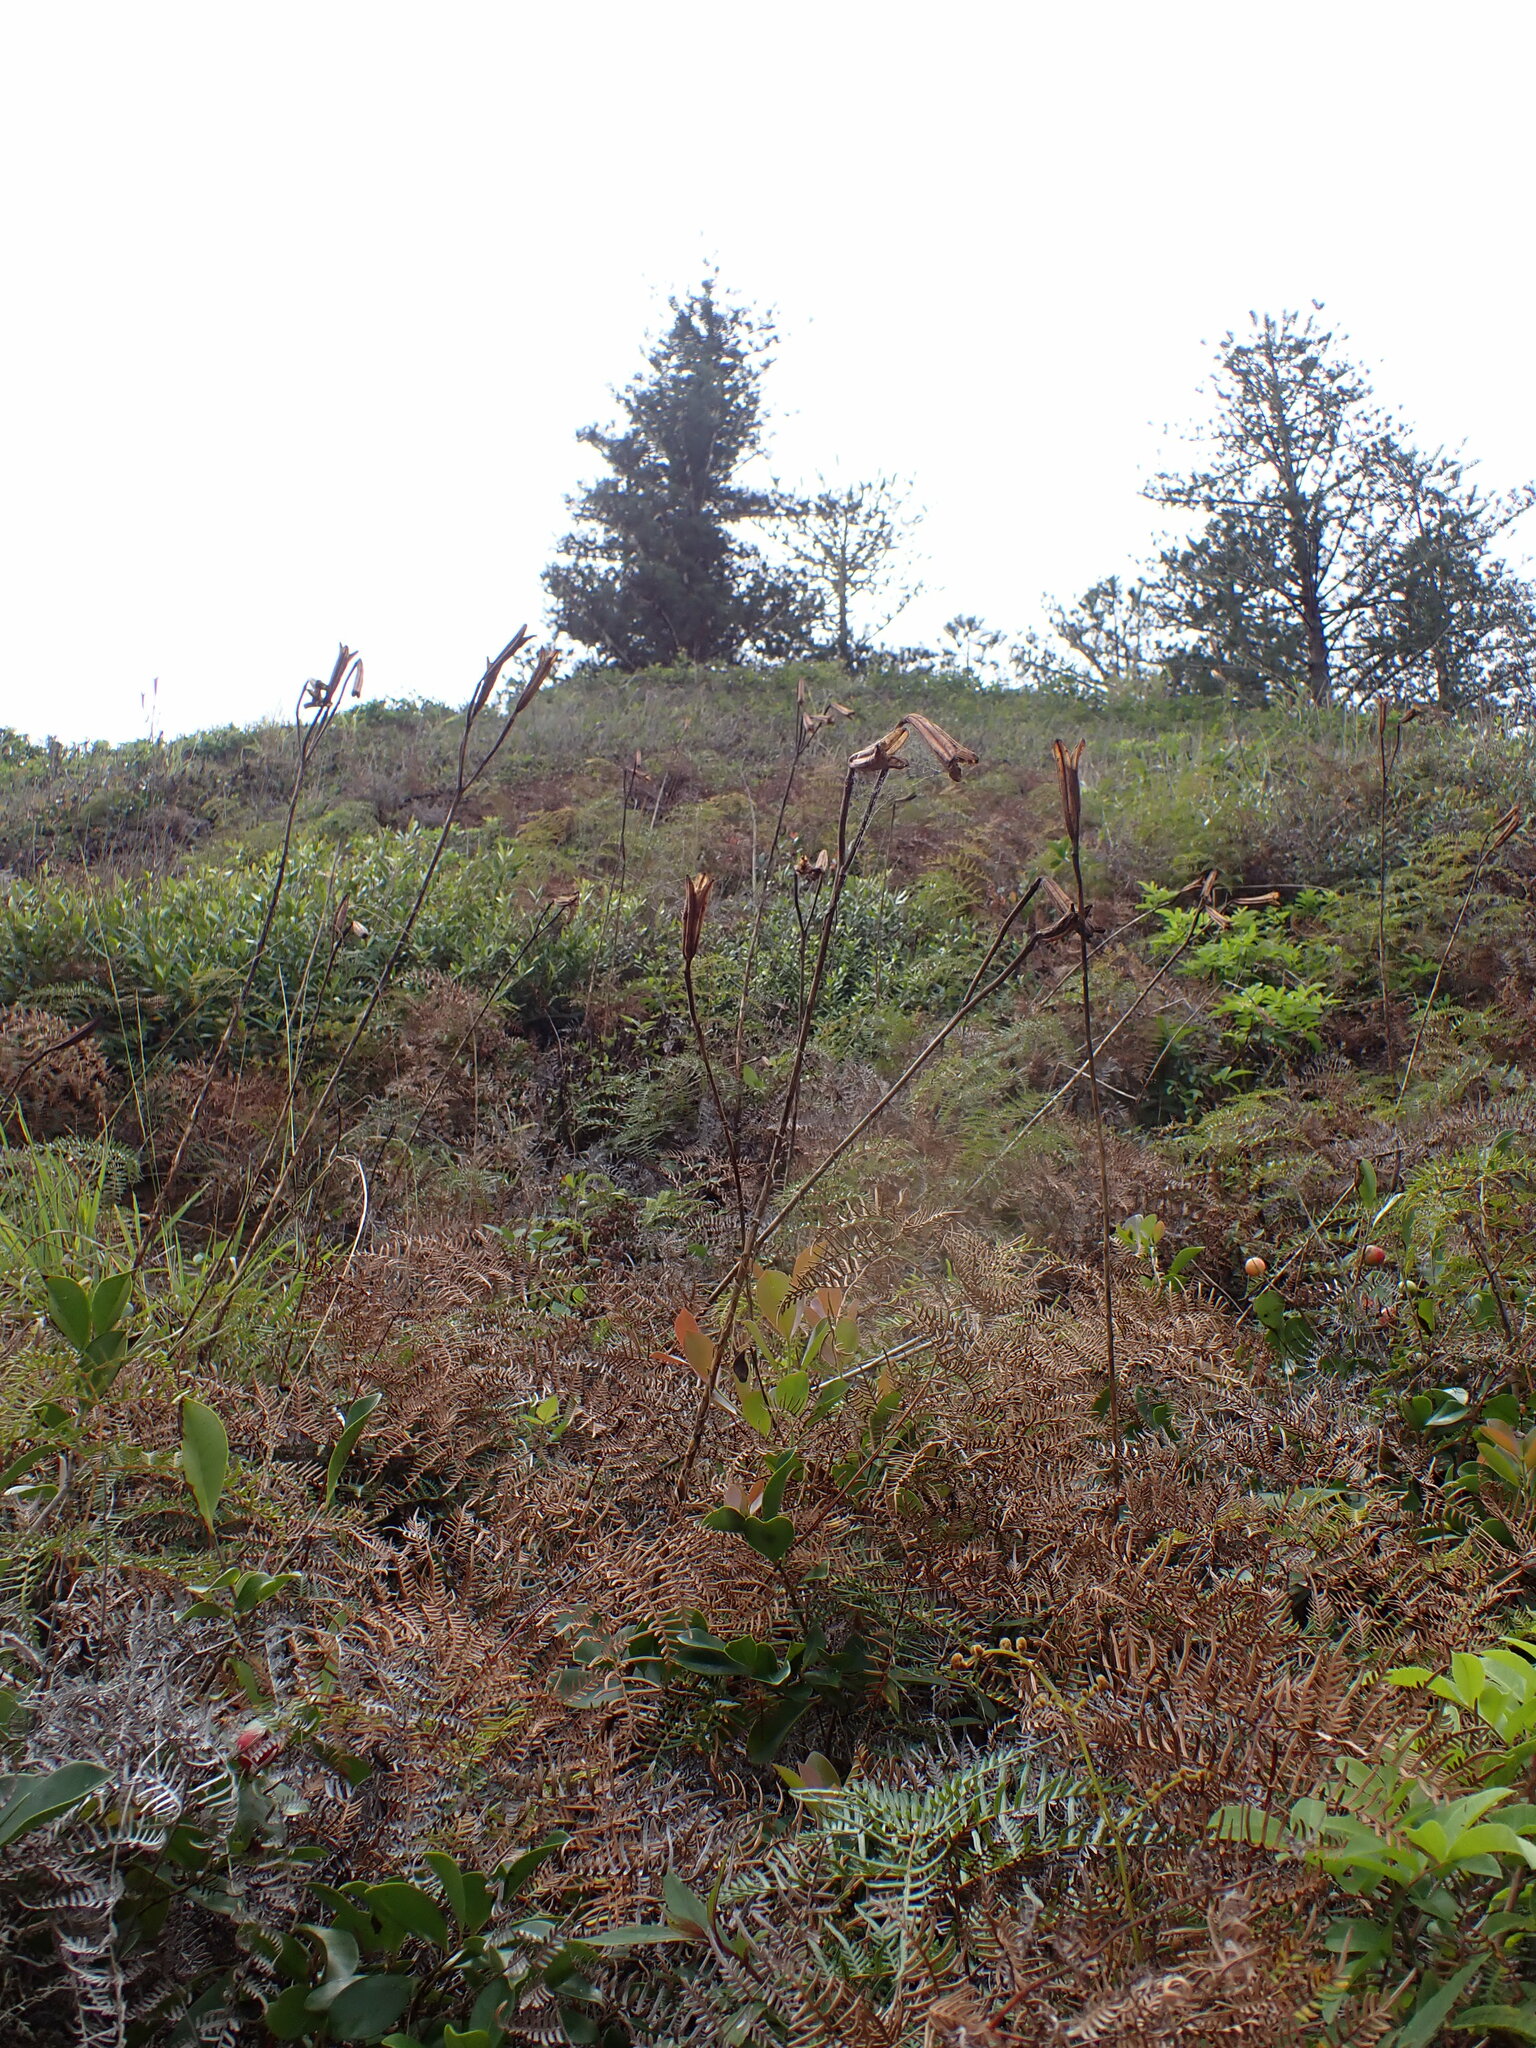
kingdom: Plantae
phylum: Tracheophyta
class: Liliopsida
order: Liliales
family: Liliaceae
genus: Lilium
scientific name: Lilium formosanum
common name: Formosa lily
